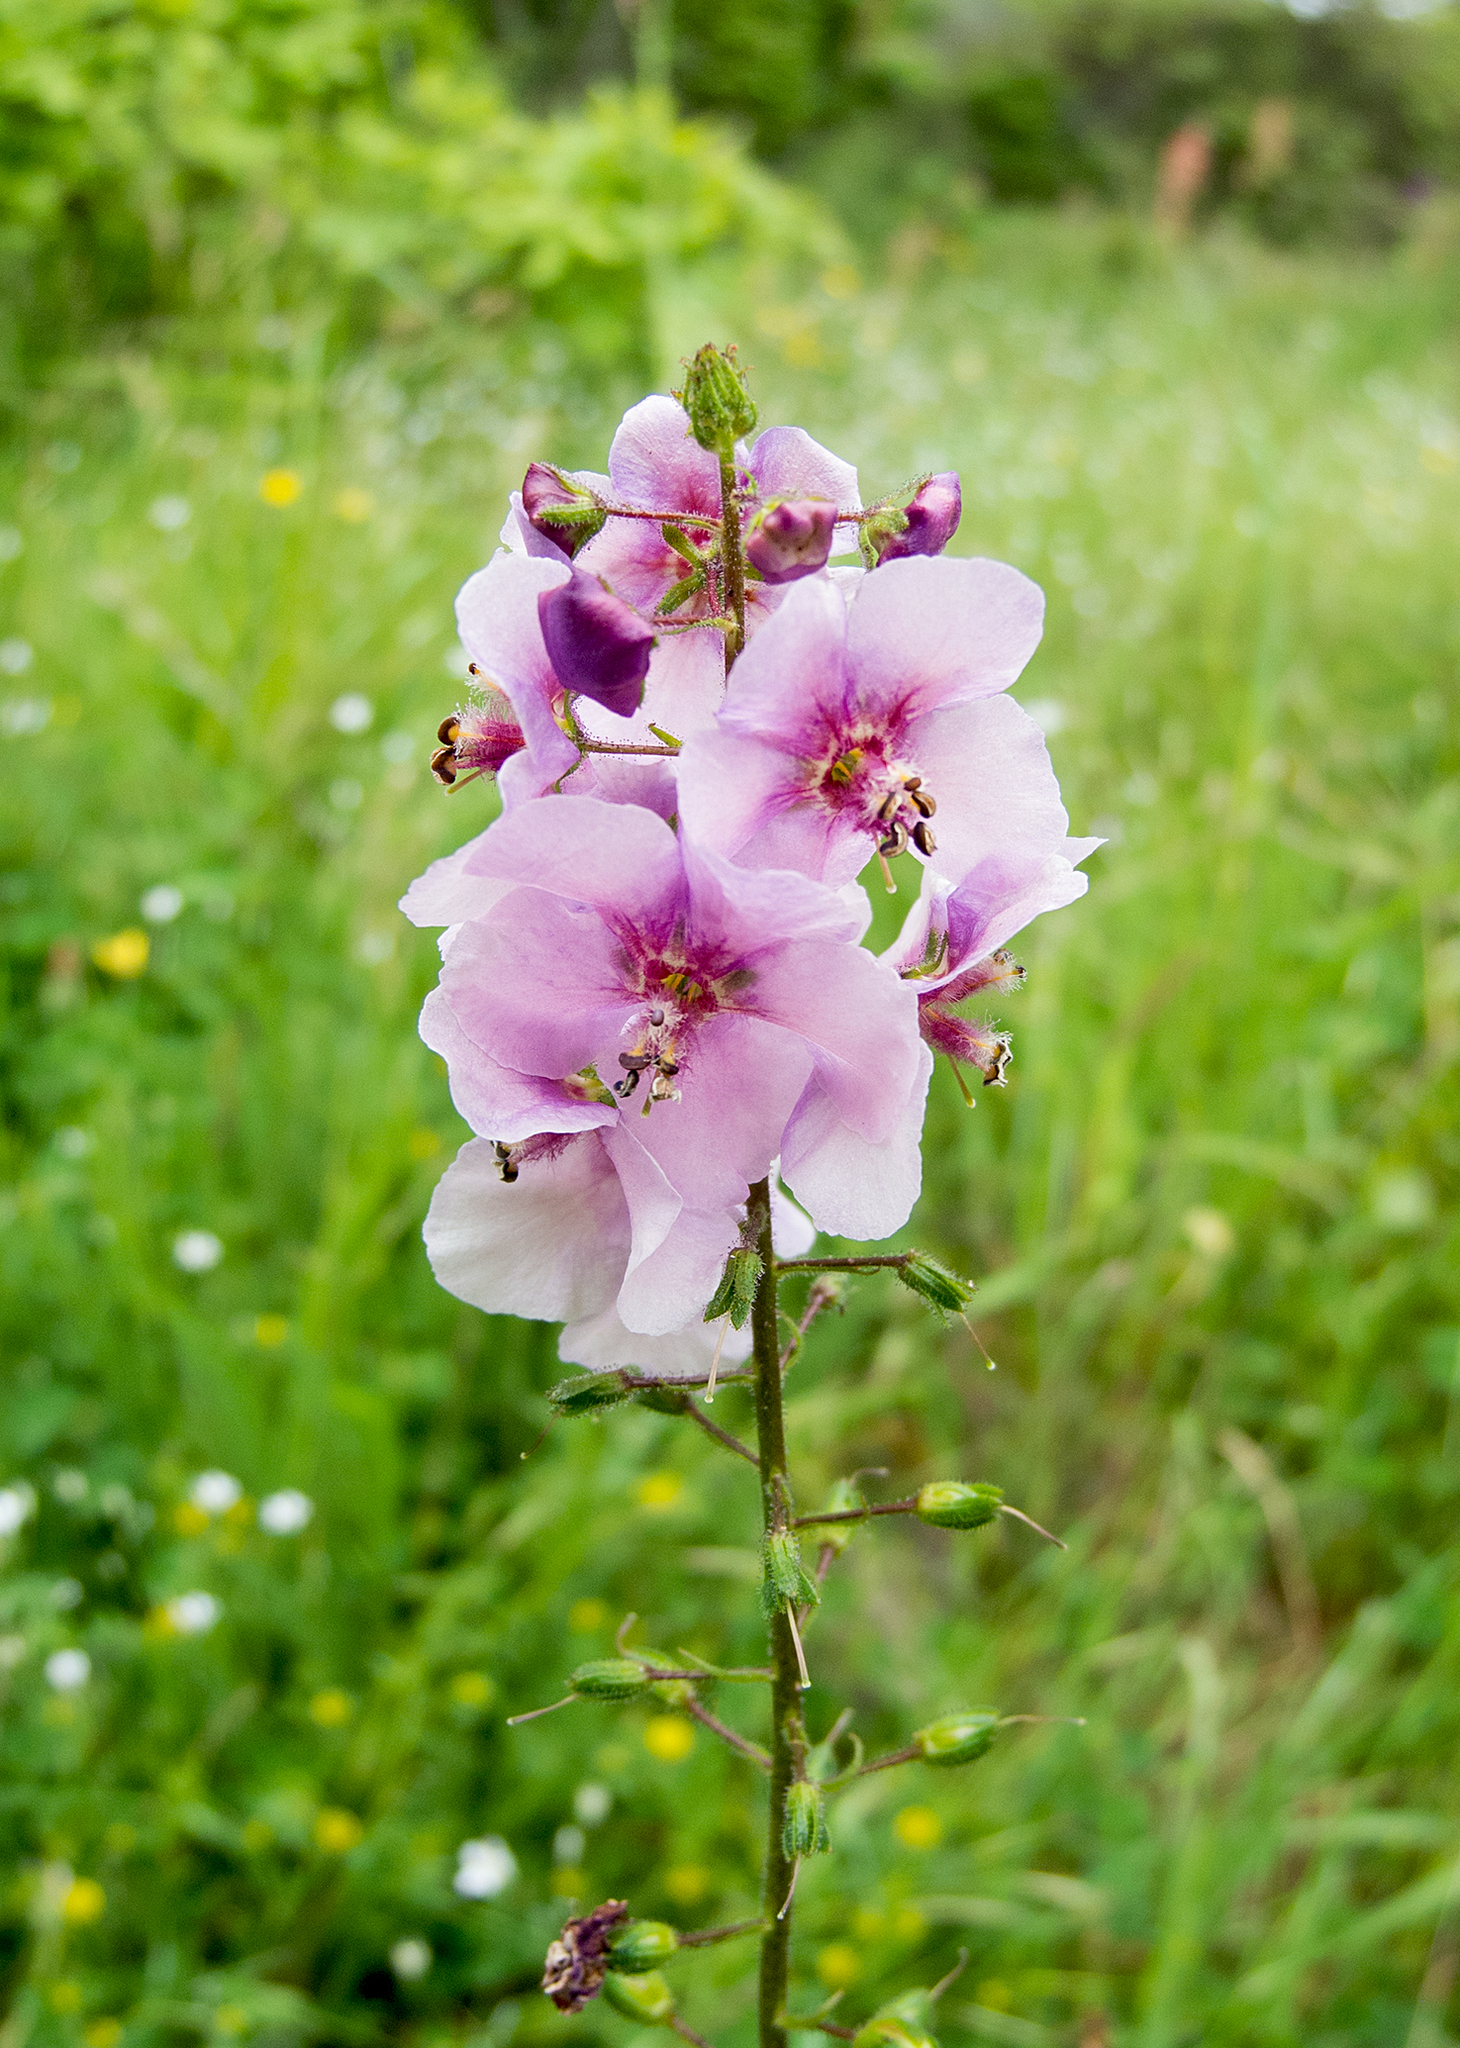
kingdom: Plantae
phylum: Tracheophyta
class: Magnoliopsida
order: Lamiales
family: Scrophulariaceae
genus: Verbascum
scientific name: Verbascum phoeniceum
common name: Purple mullein
